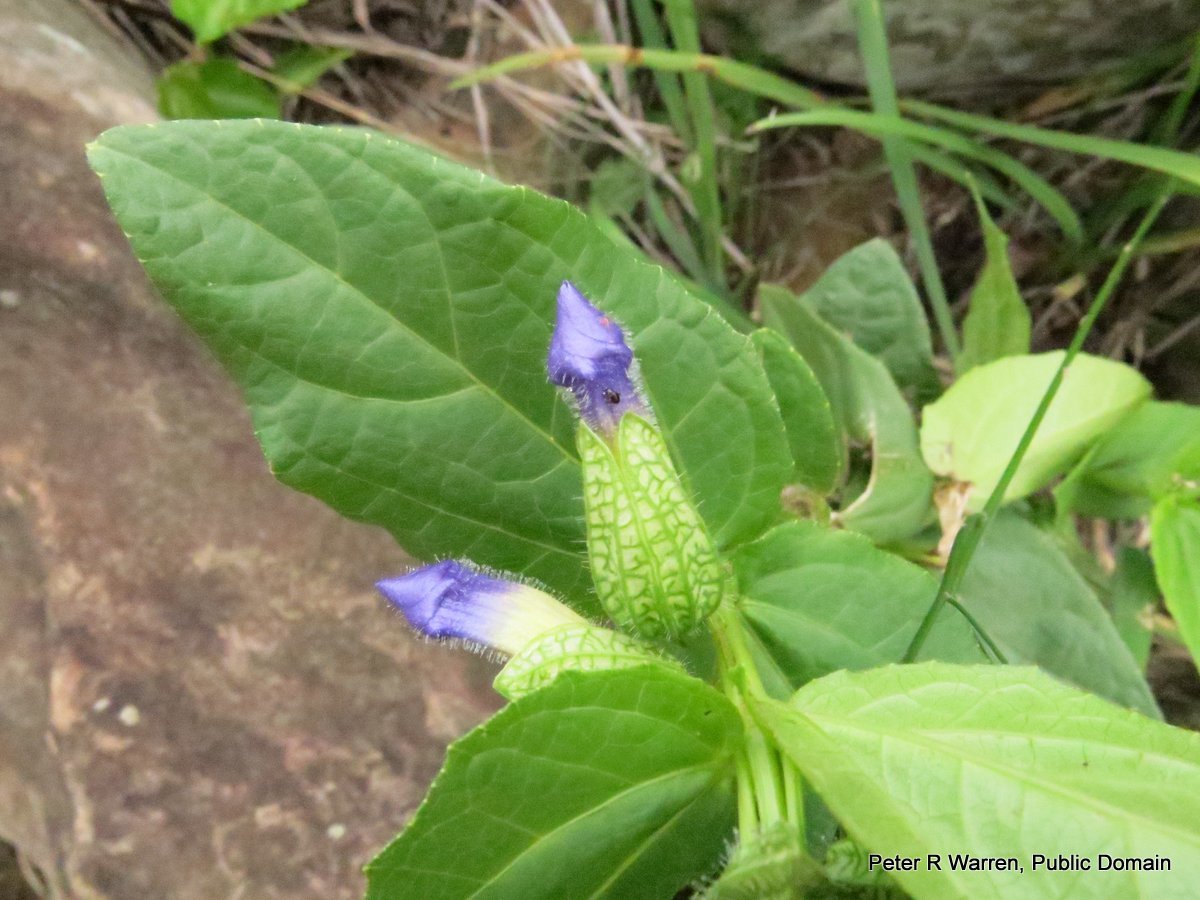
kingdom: Plantae
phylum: Tracheophyta
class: Magnoliopsida
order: Lamiales
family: Acanthaceae
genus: Thunbergia
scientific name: Thunbergia natalensis
